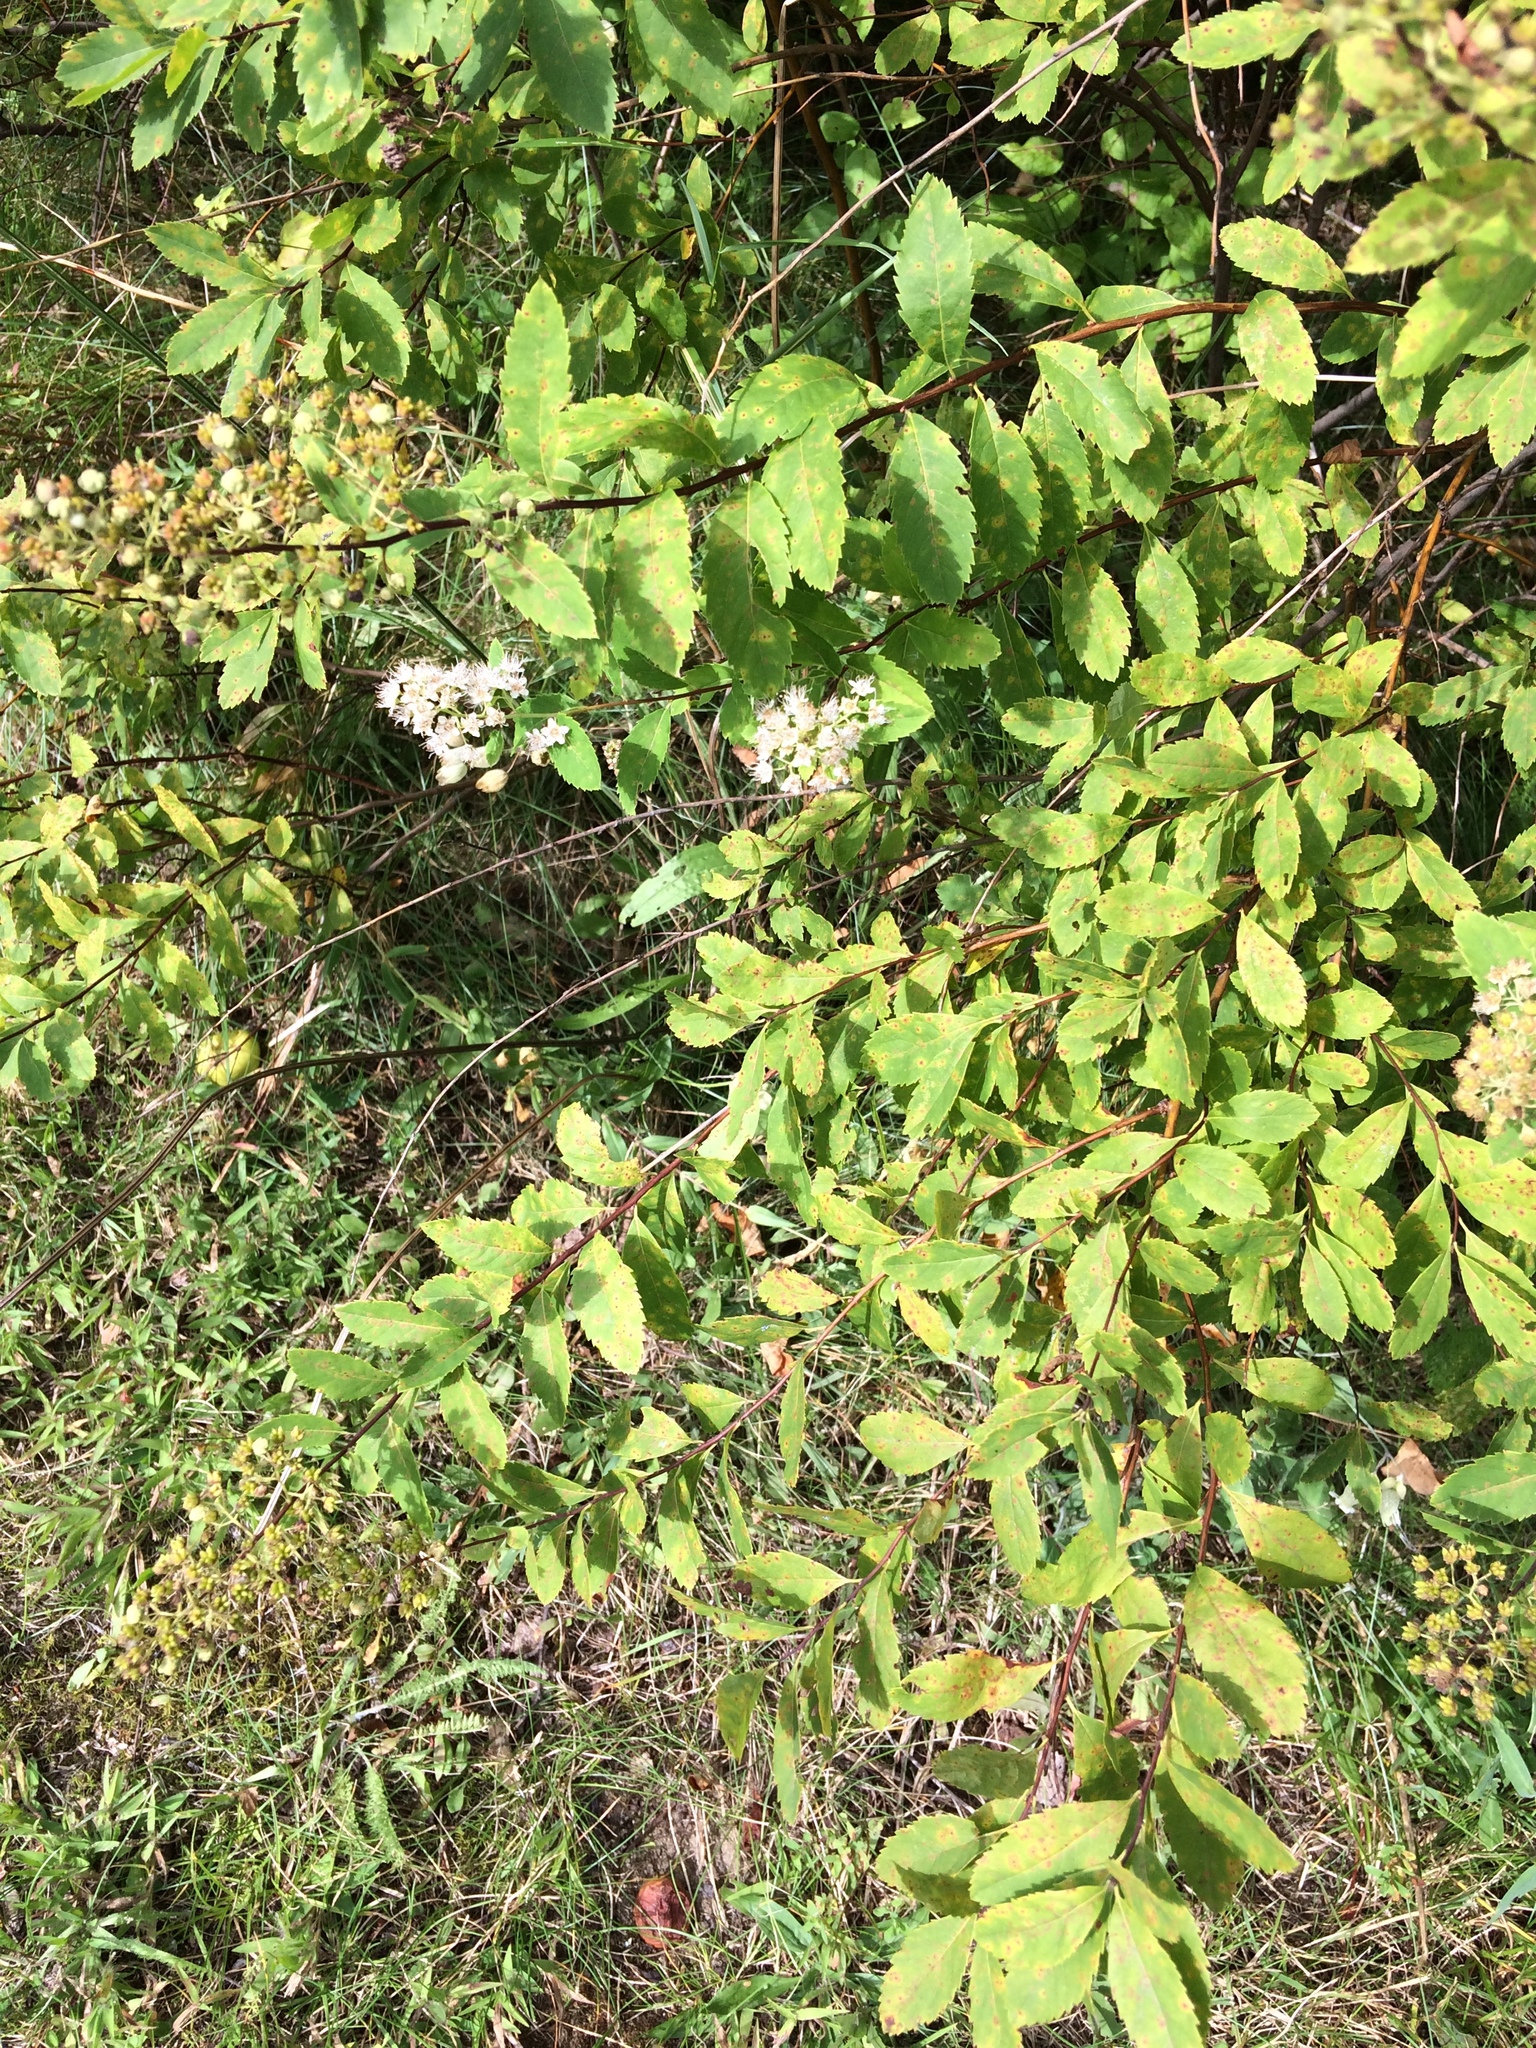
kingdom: Plantae
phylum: Tracheophyta
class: Magnoliopsida
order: Rosales
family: Rosaceae
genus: Spiraea
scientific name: Spiraea alba
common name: Pale bridewort
